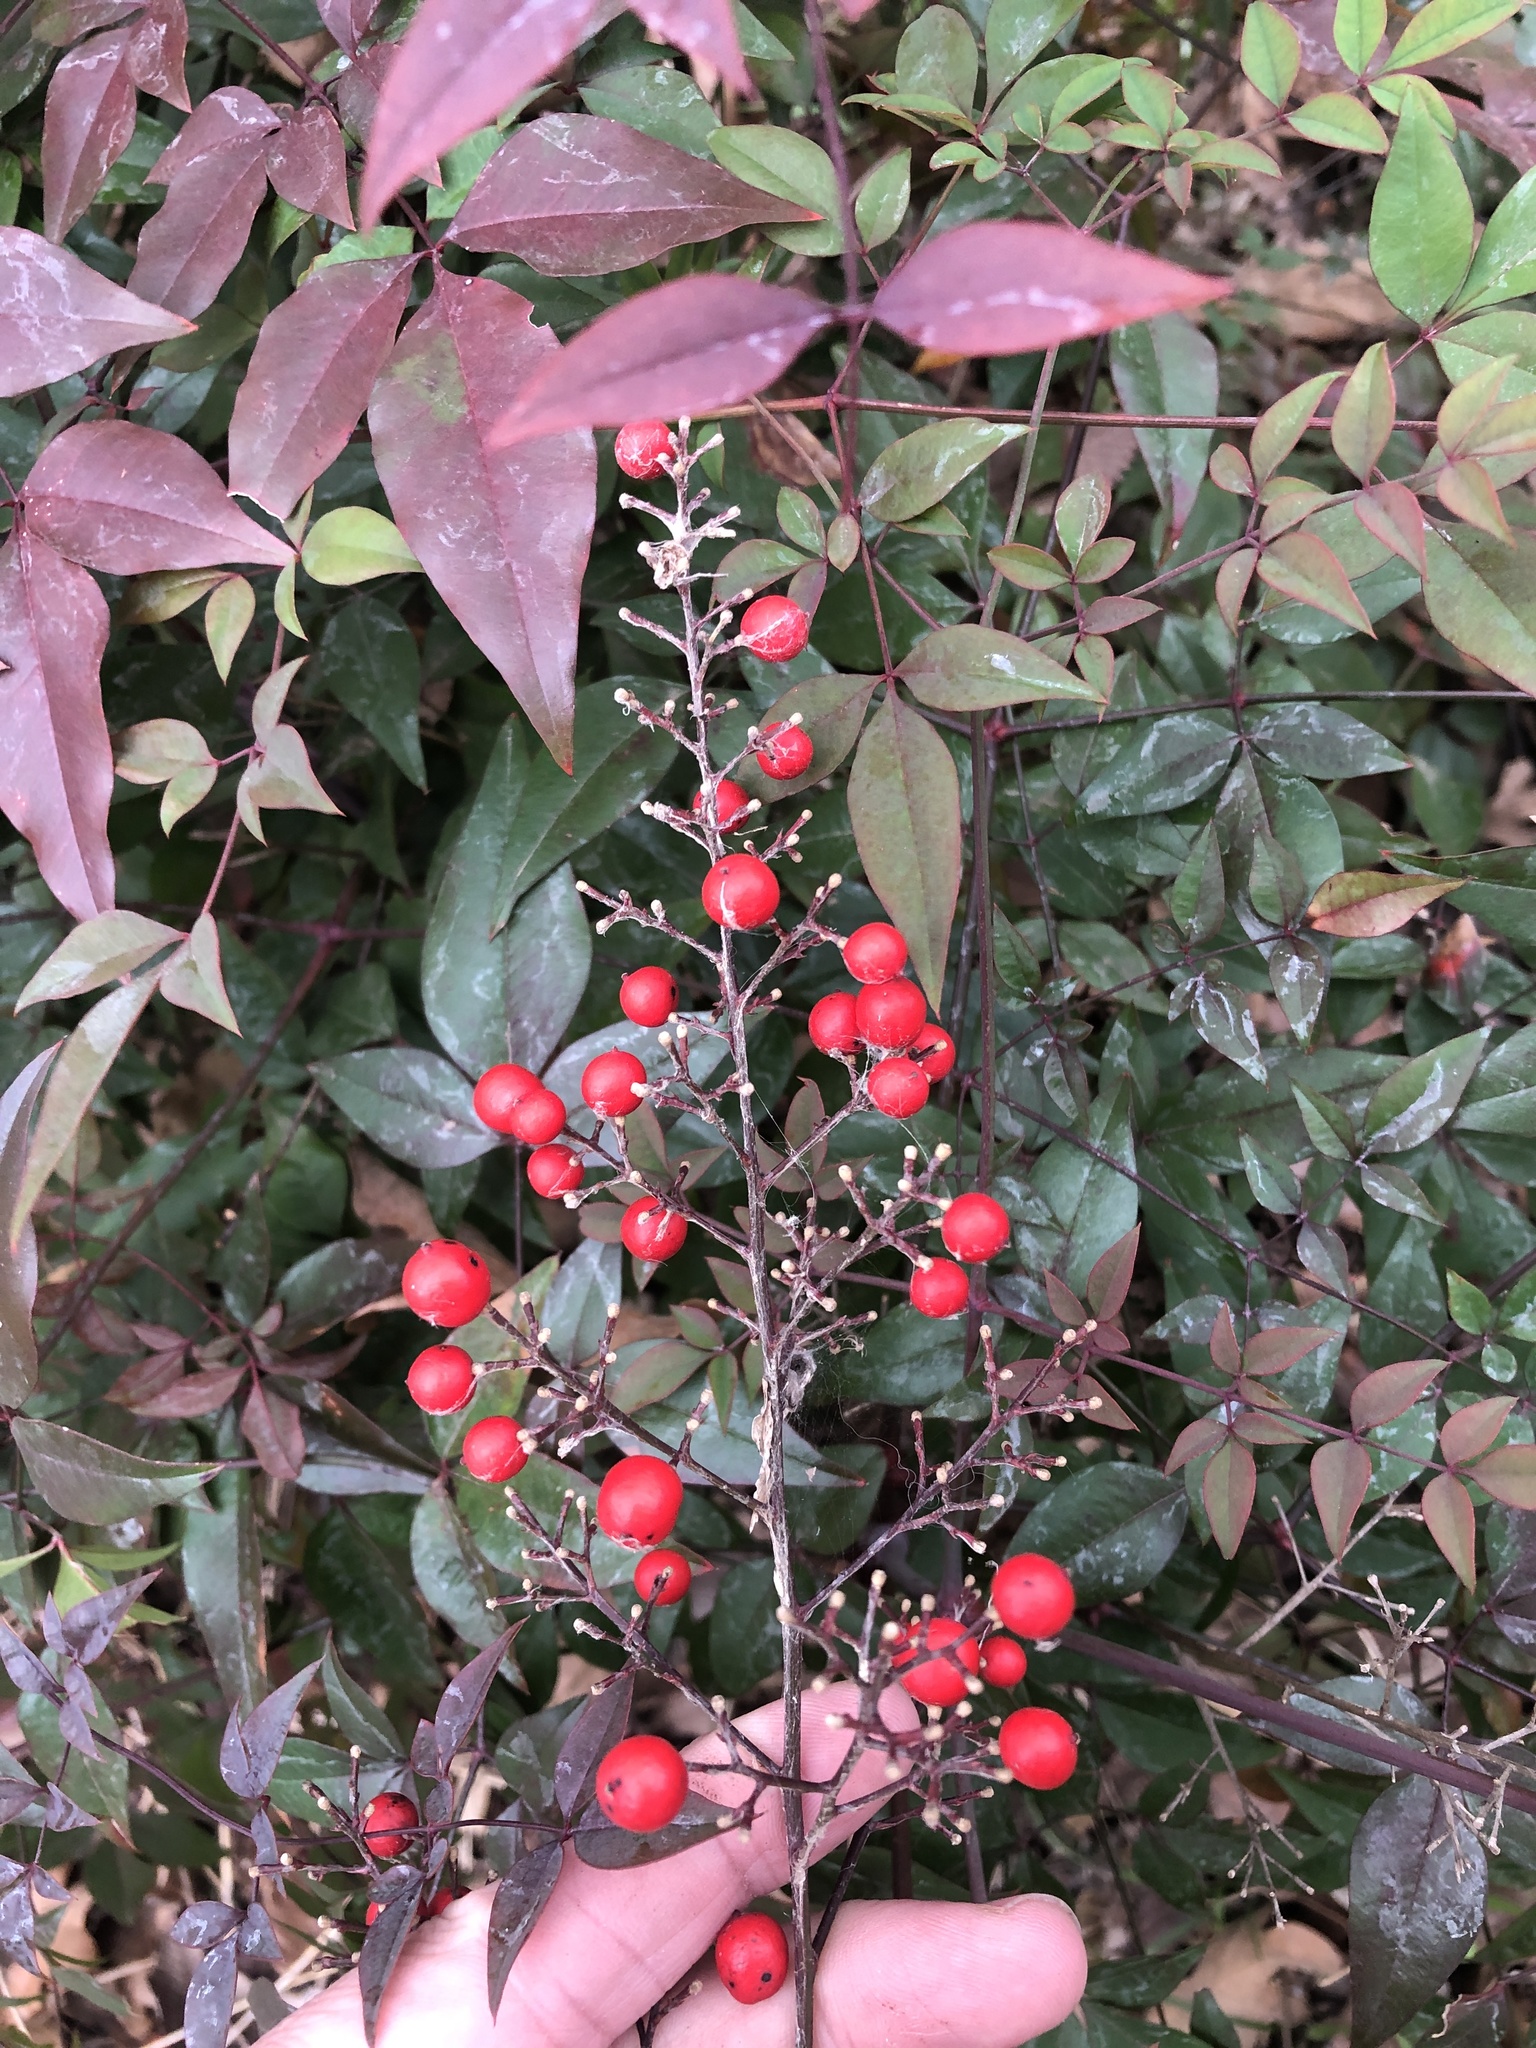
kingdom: Plantae
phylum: Tracheophyta
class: Magnoliopsida
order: Ranunculales
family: Berberidaceae
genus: Nandina
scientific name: Nandina domestica
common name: Sacred bamboo
